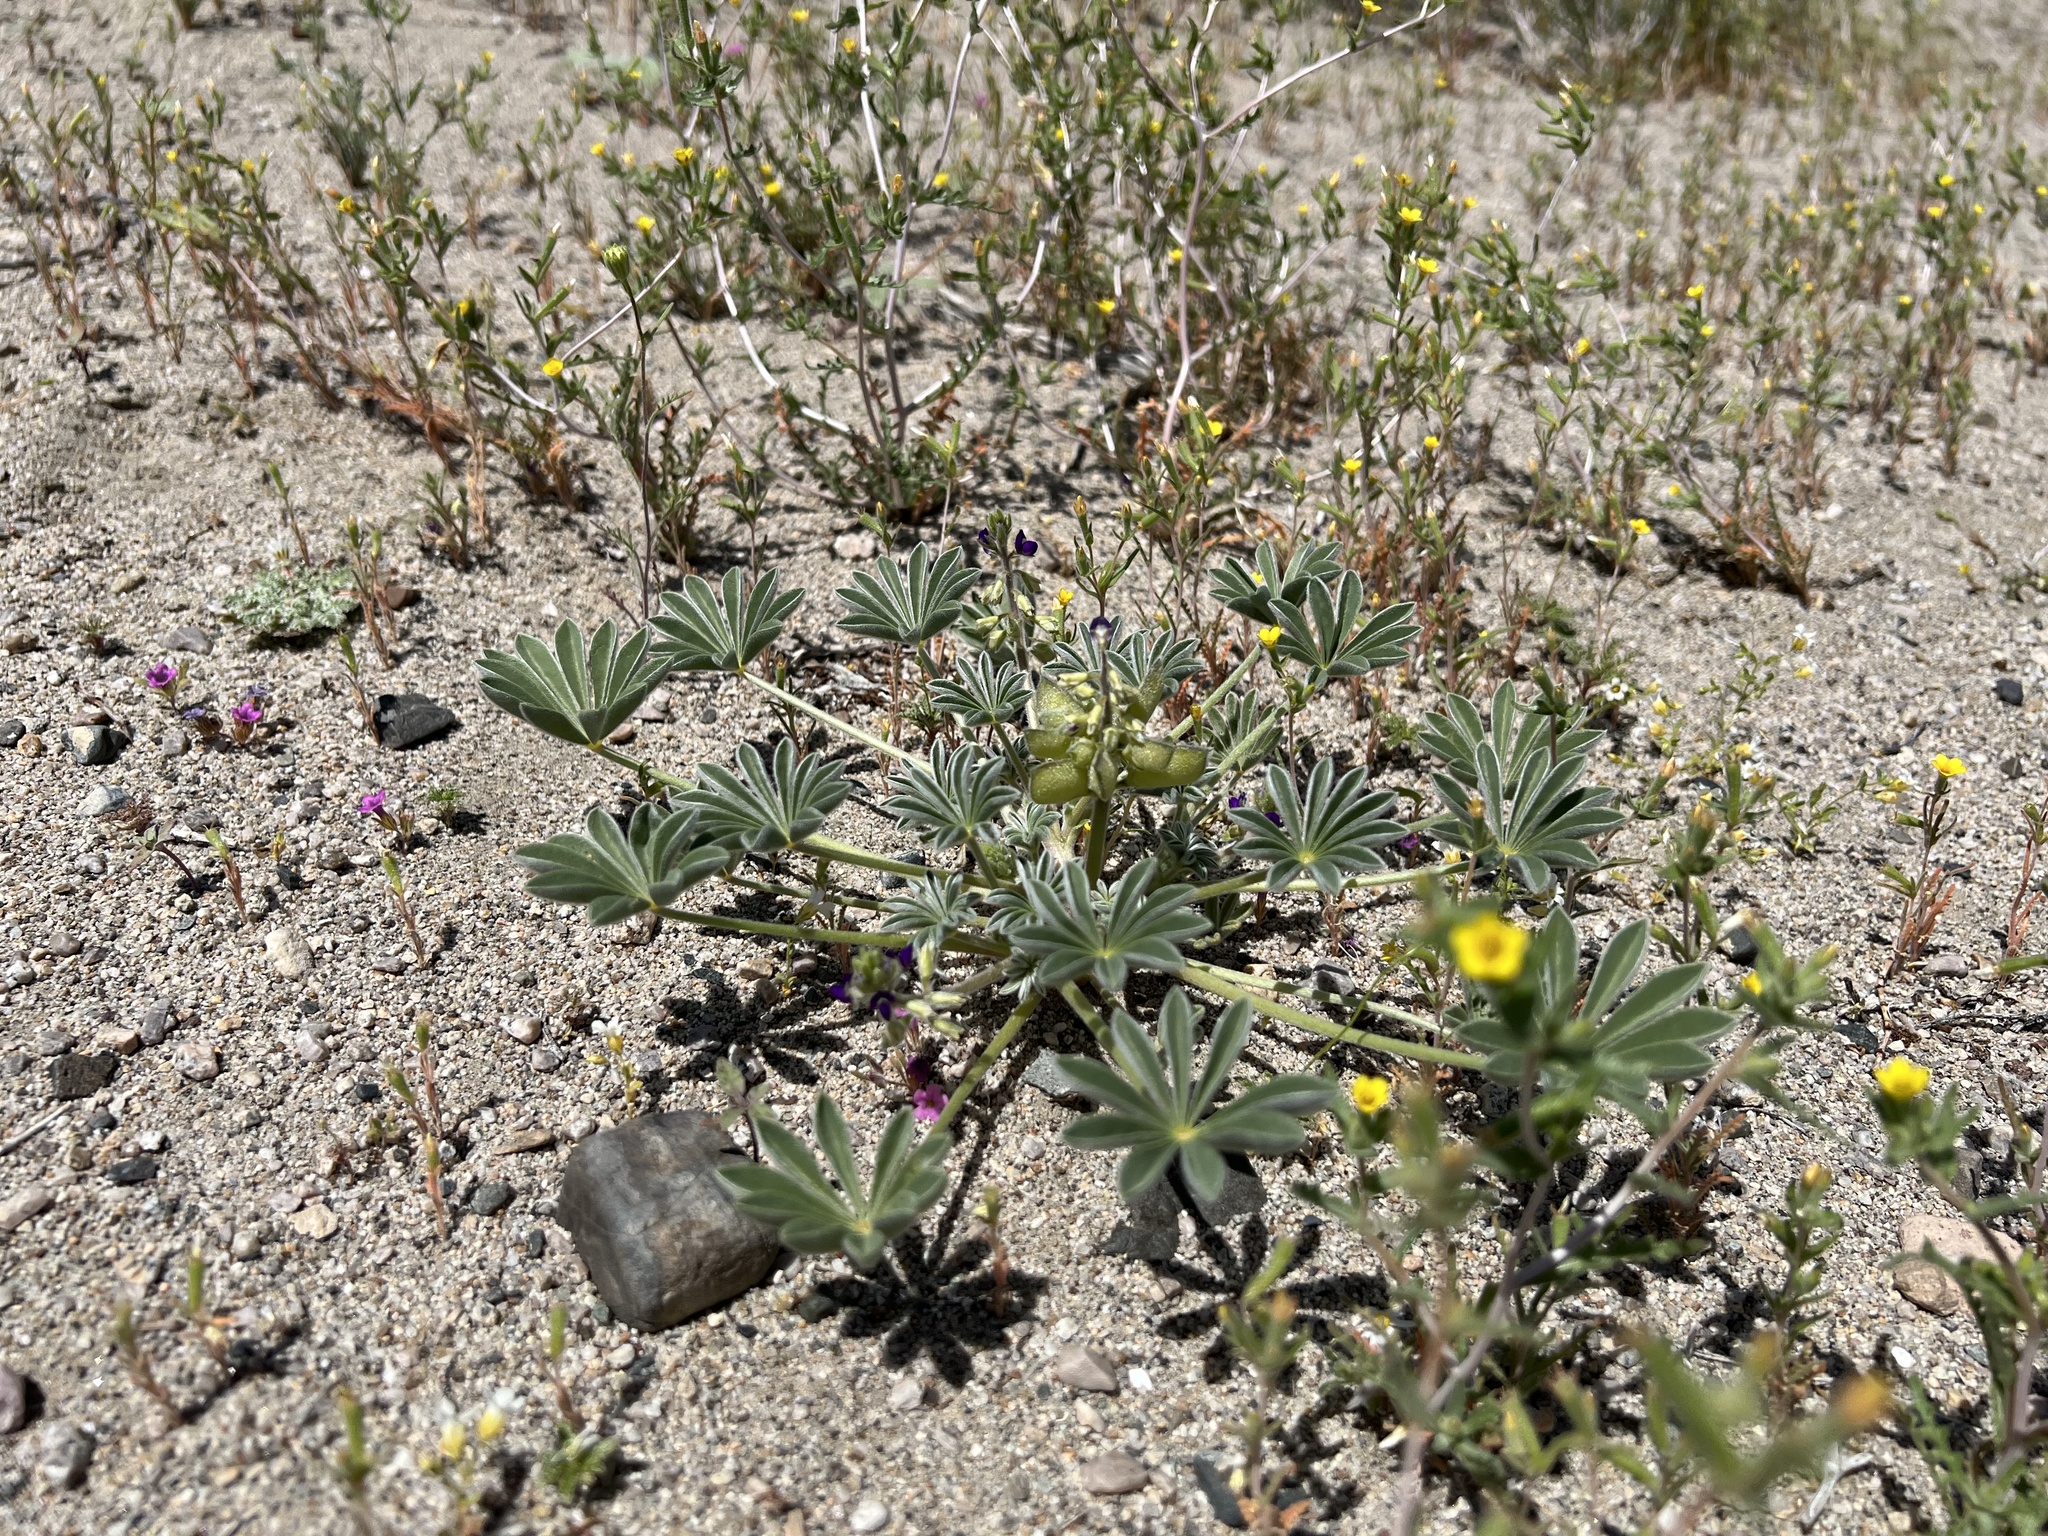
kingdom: Plantae
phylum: Tracheophyta
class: Magnoliopsida
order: Fabales
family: Fabaceae
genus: Lupinus
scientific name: Lupinus shockleyi
